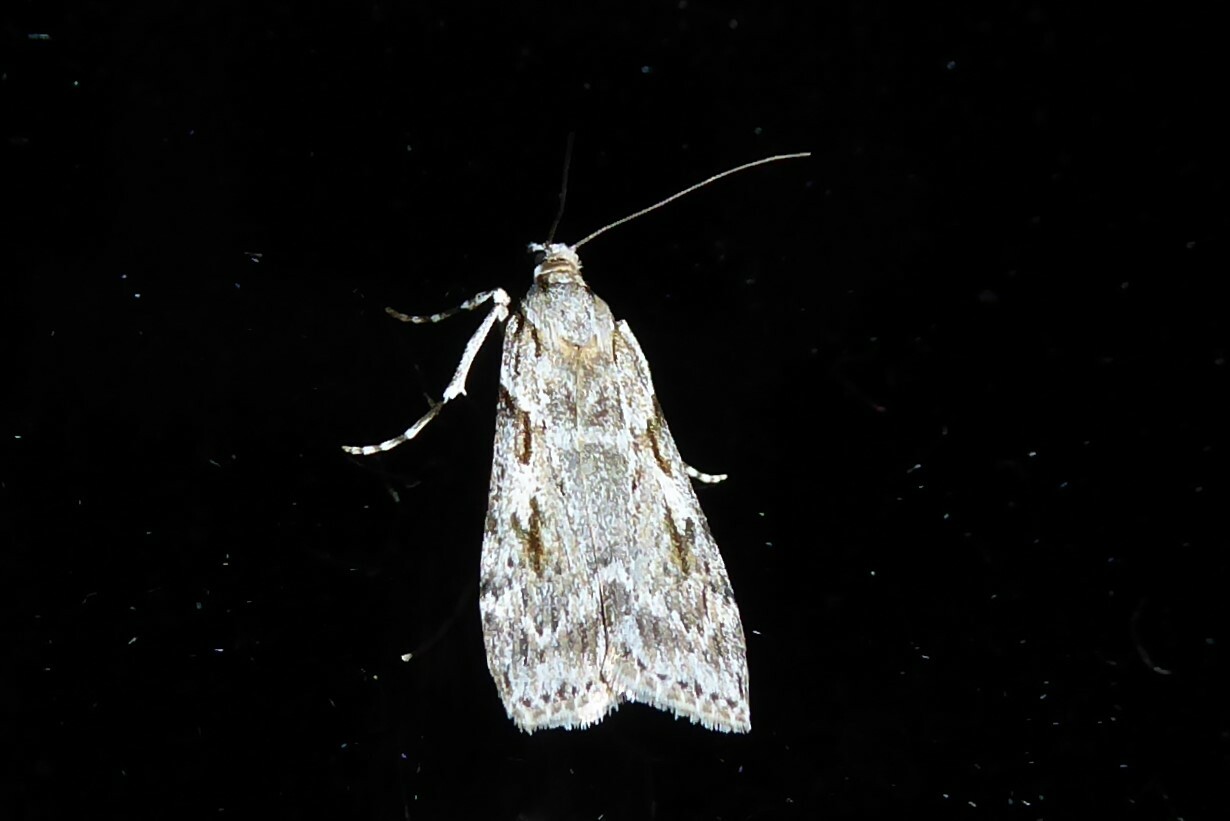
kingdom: Animalia
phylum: Arthropoda
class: Insecta
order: Lepidoptera
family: Crambidae
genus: Scoparia
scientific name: Scoparia halopis
